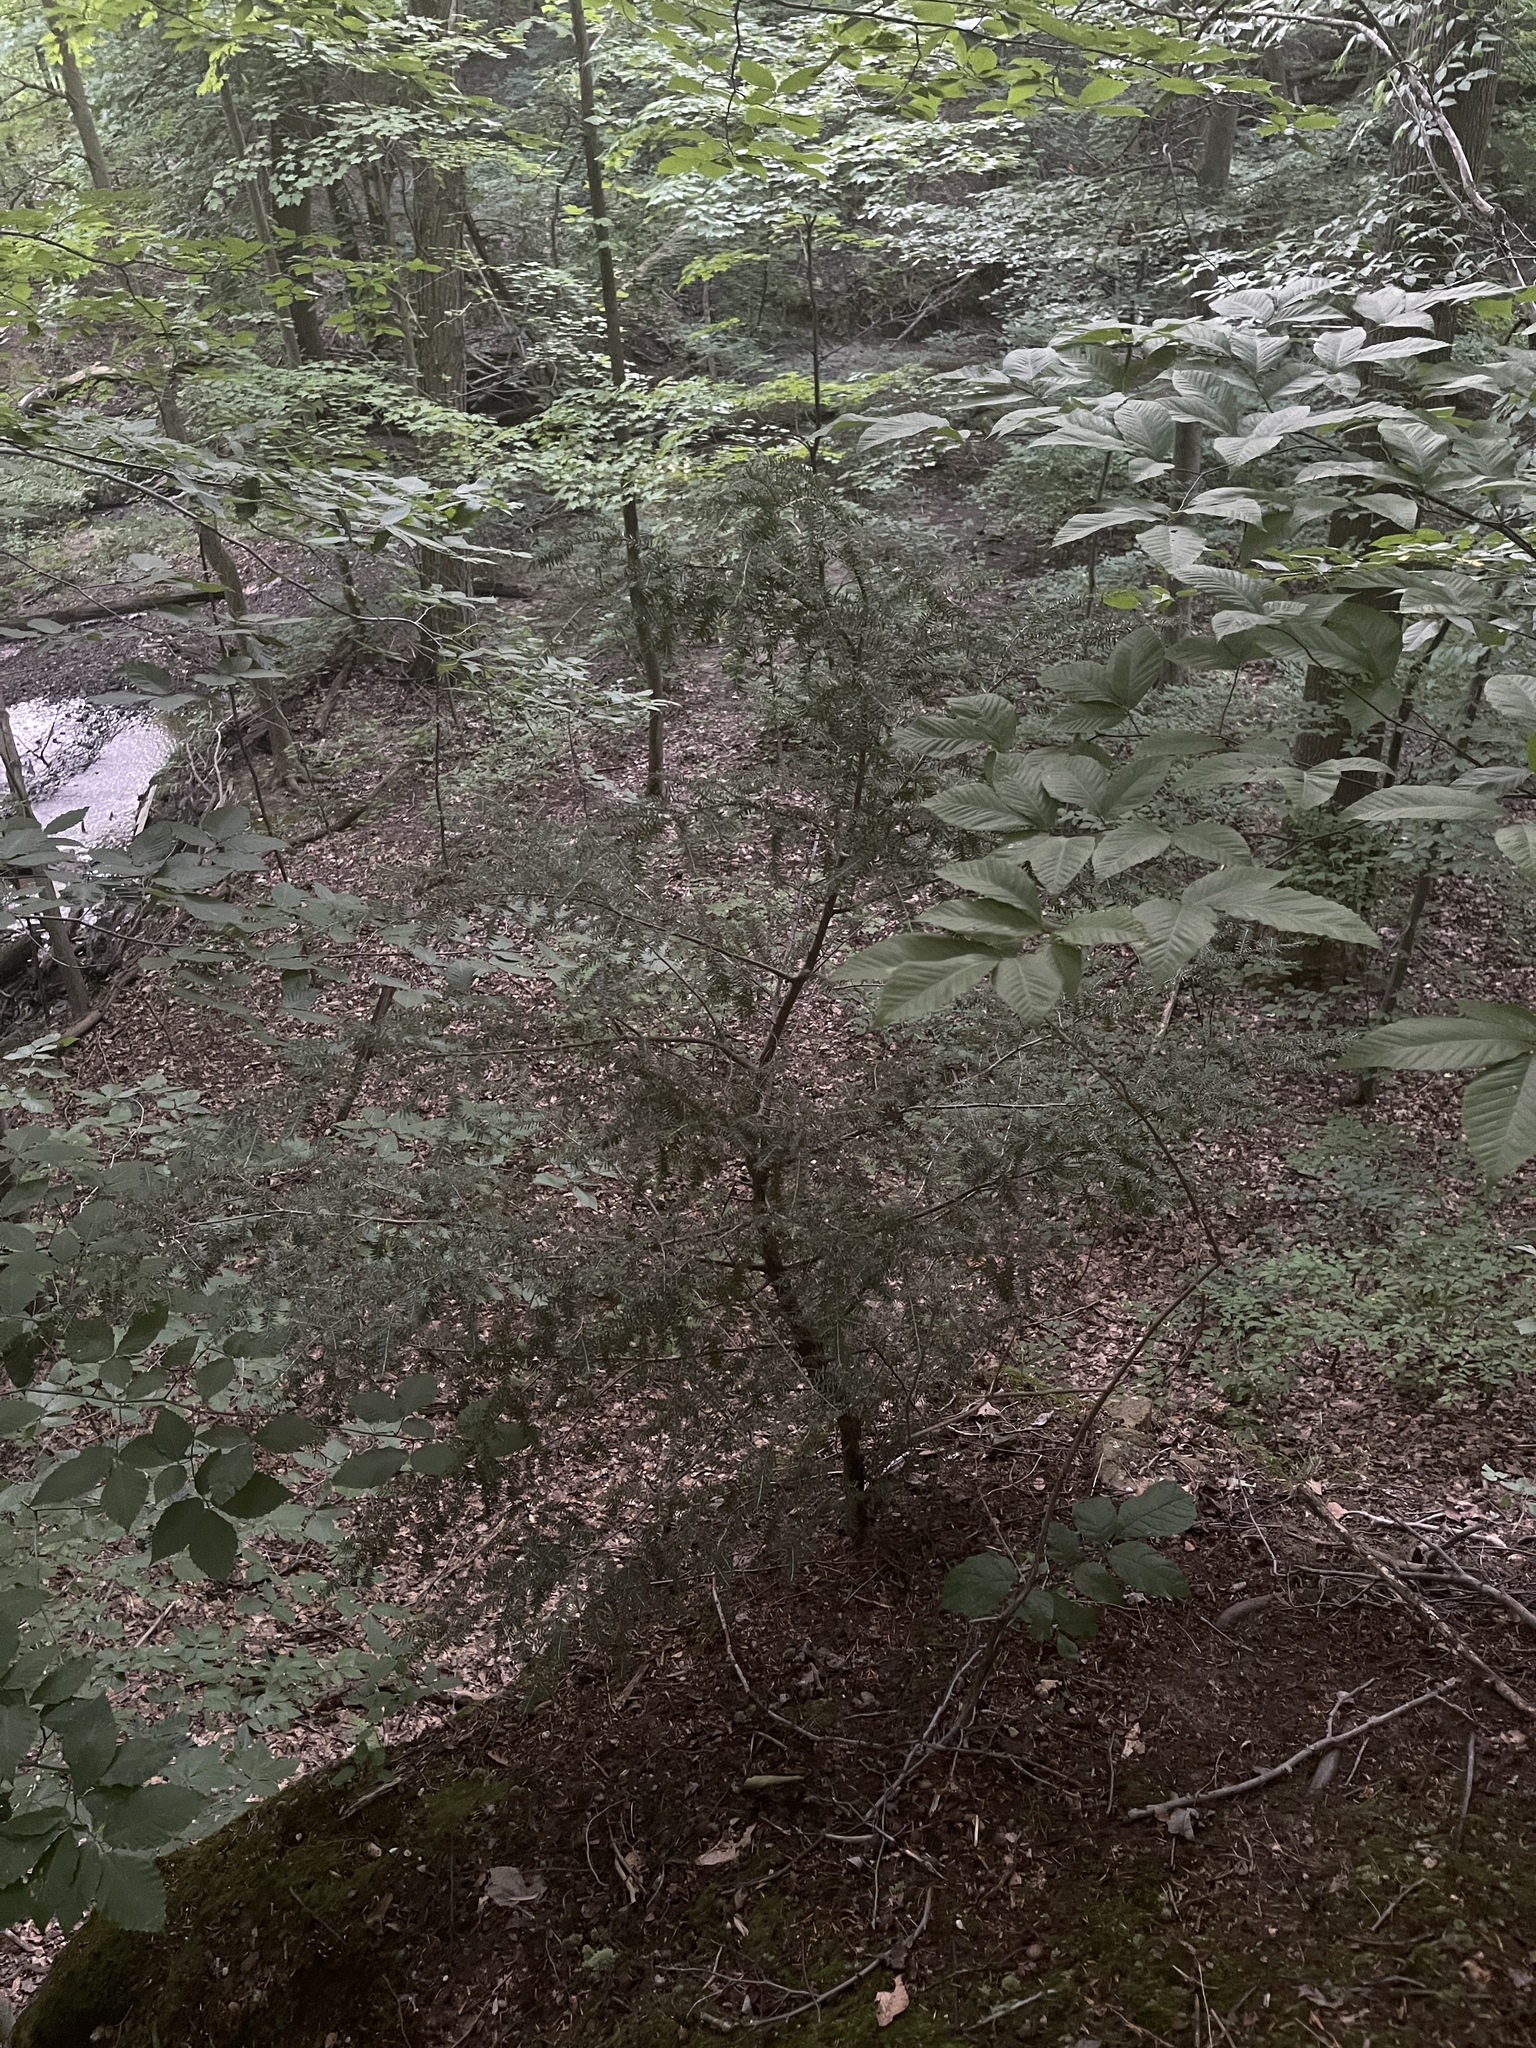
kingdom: Plantae
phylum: Tracheophyta
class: Pinopsida
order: Pinales
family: Pinaceae
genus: Tsuga
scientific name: Tsuga canadensis
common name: Eastern hemlock
